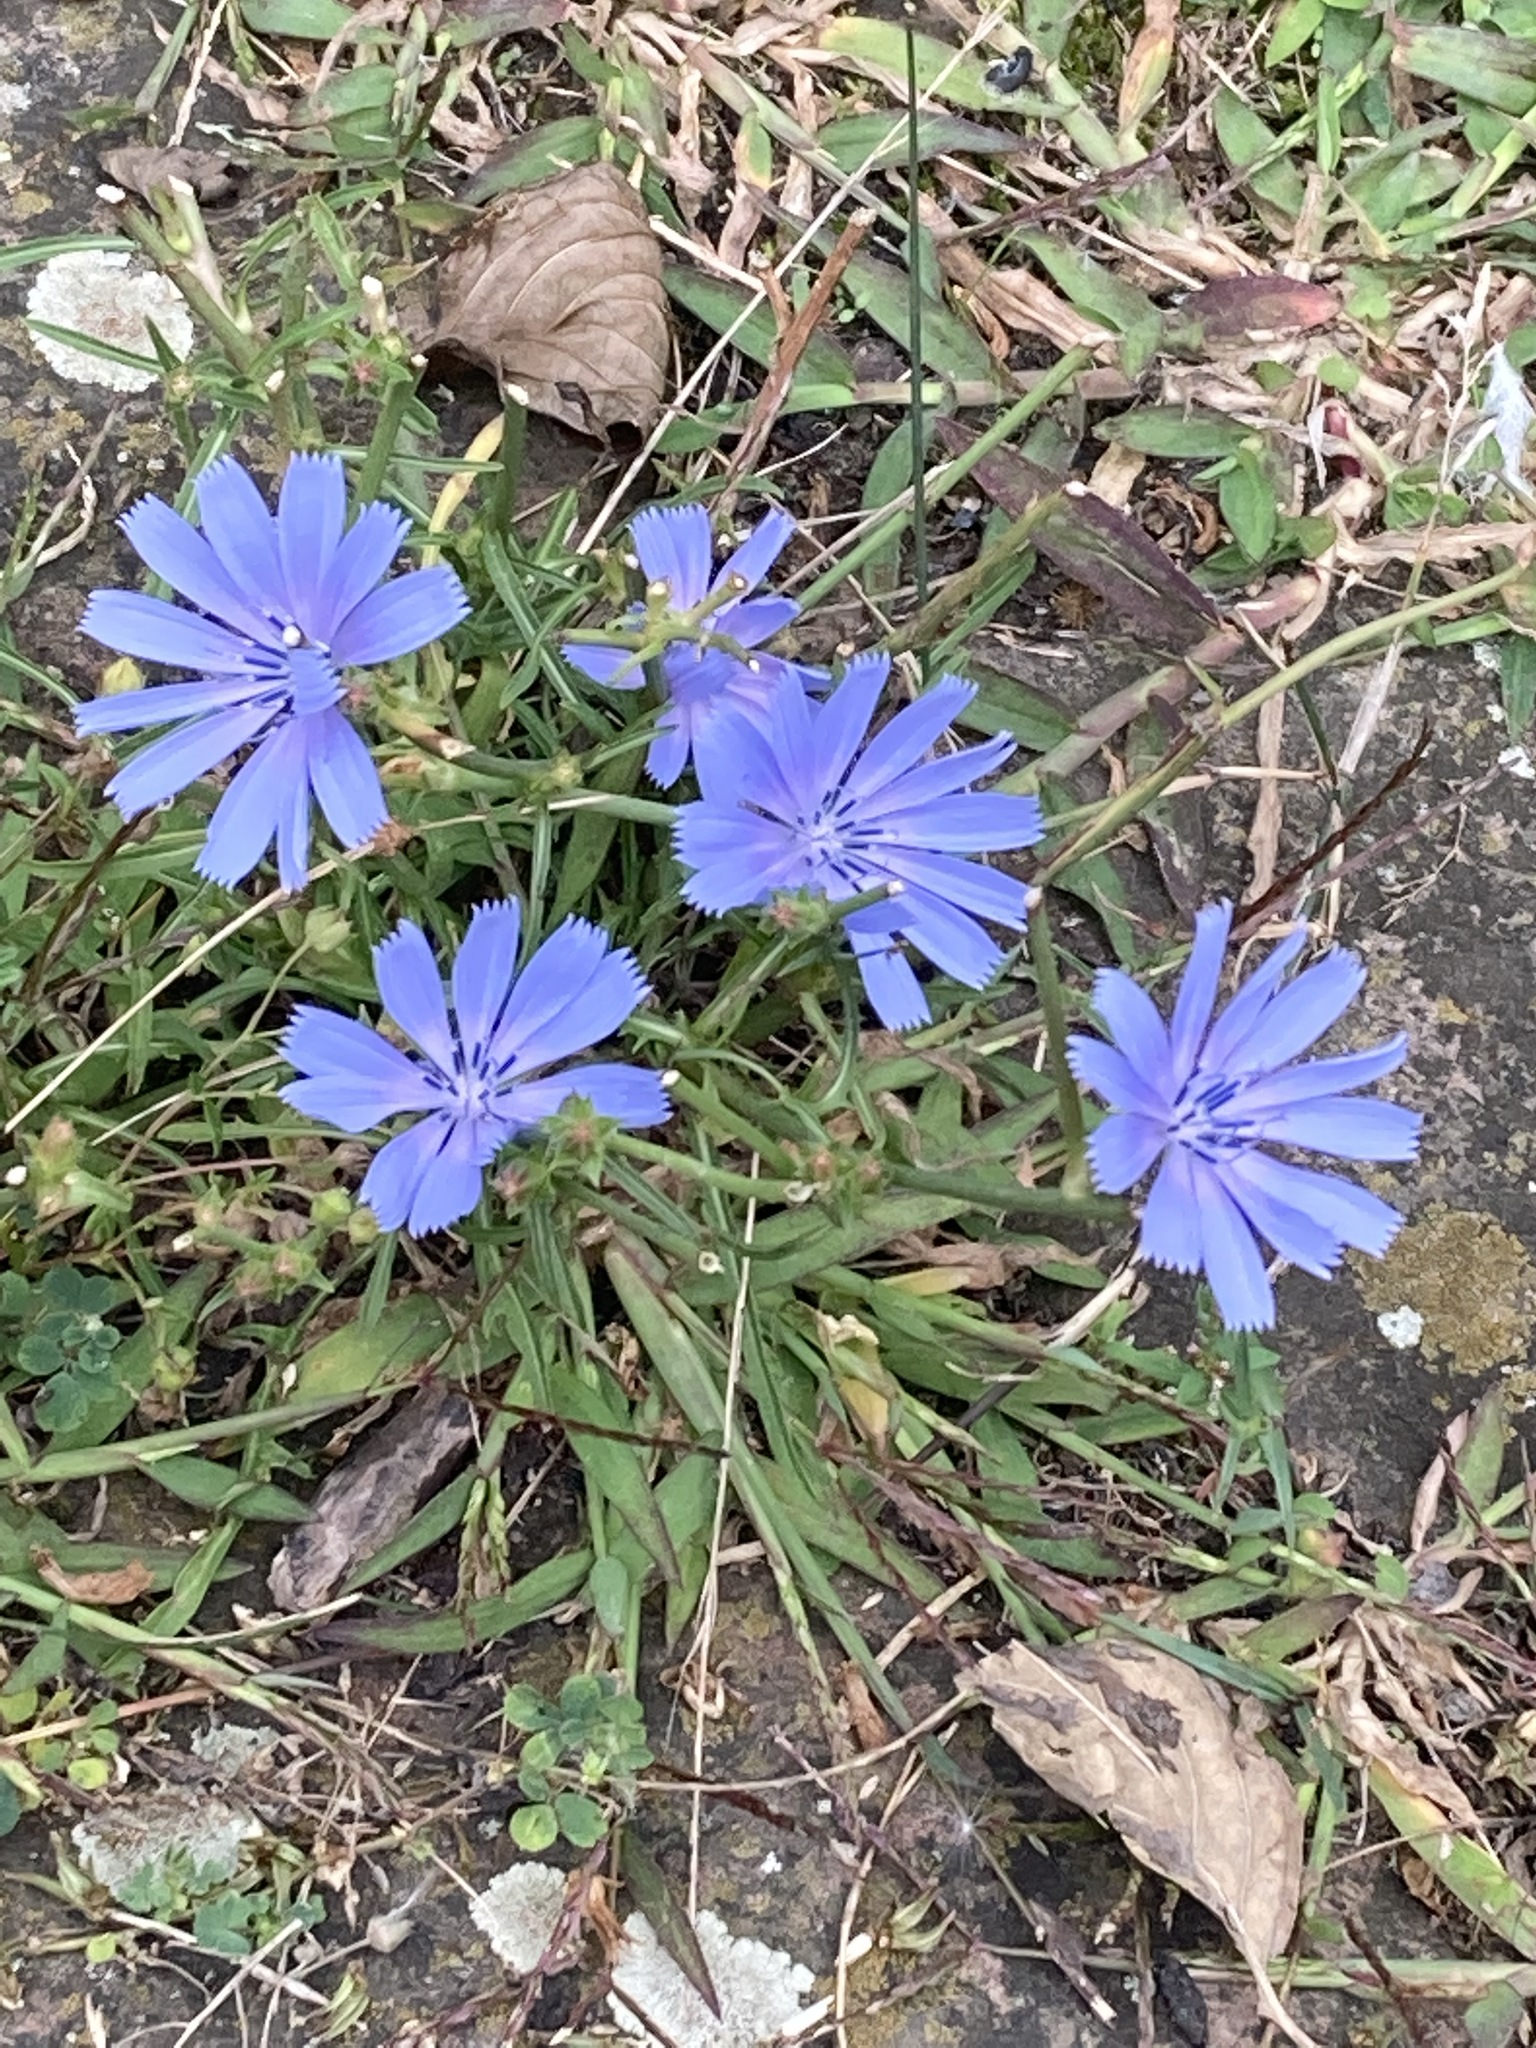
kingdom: Plantae
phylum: Tracheophyta
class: Magnoliopsida
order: Asterales
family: Asteraceae
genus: Cichorium
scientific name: Cichorium intybus
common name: Chicory
